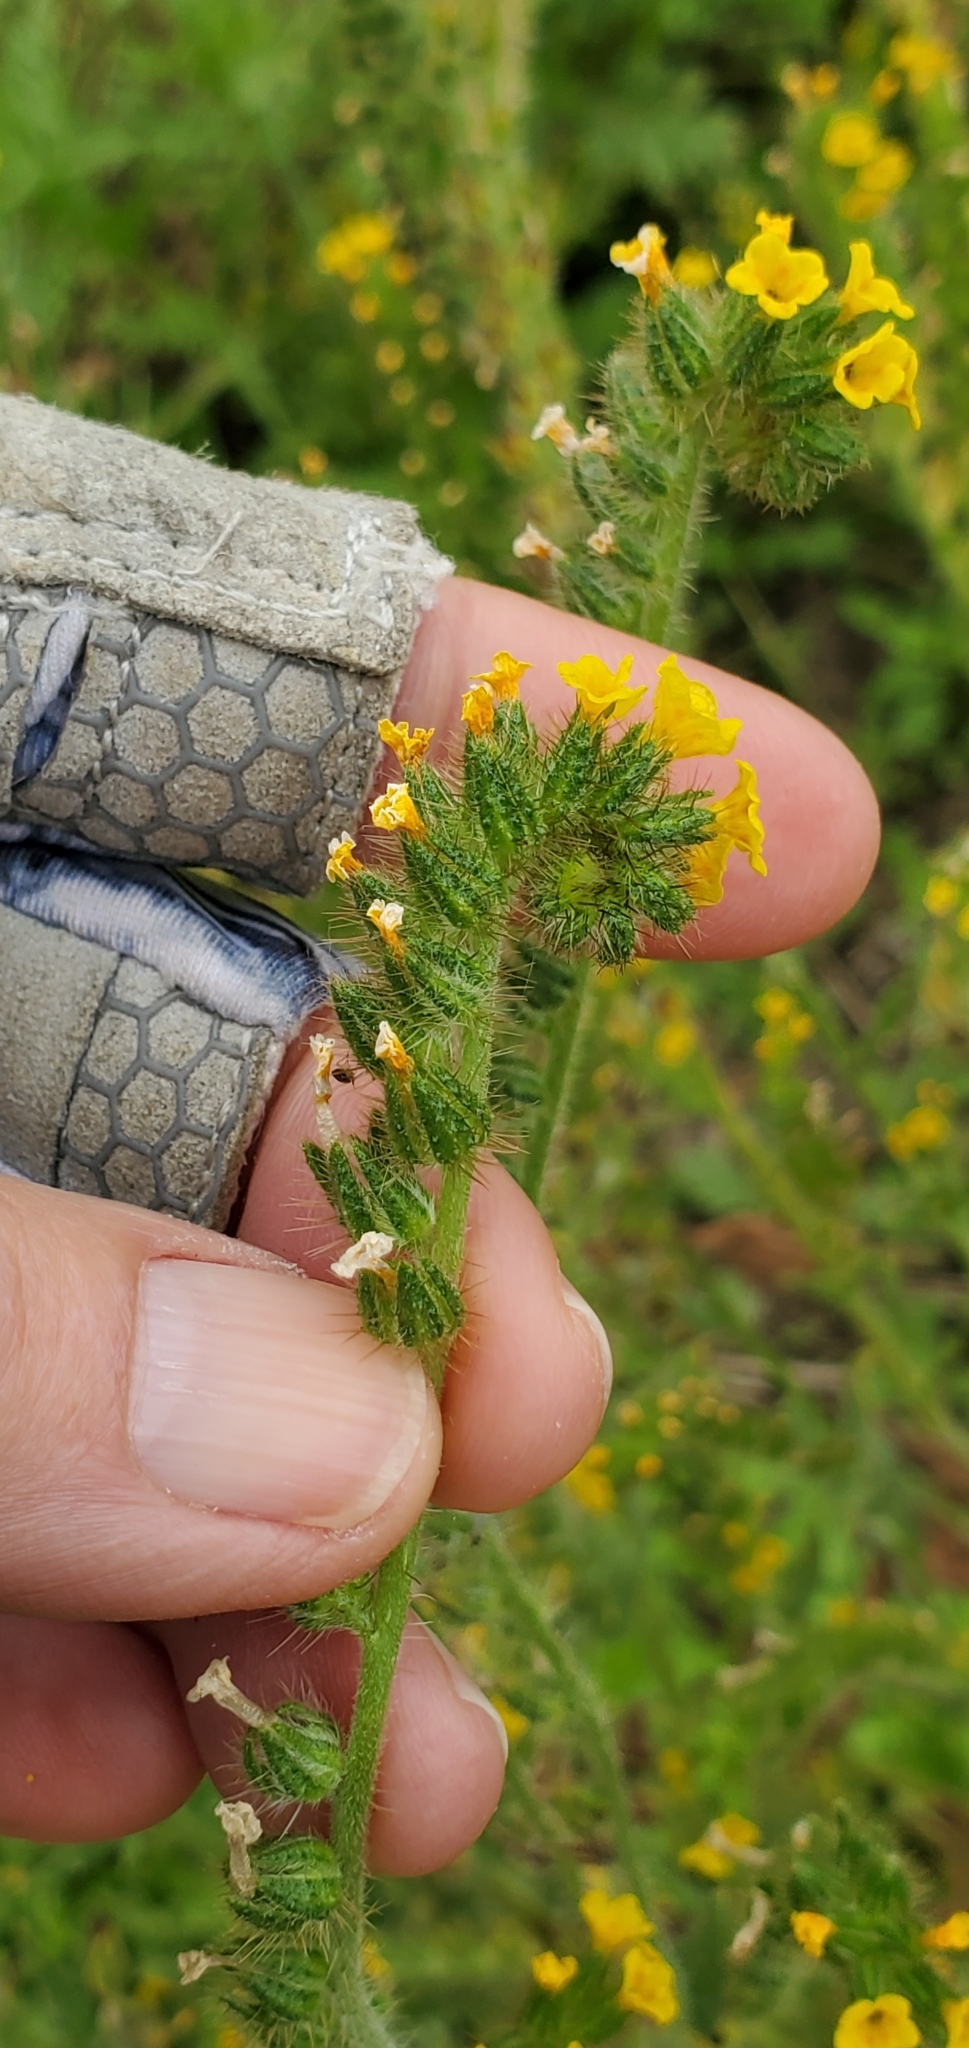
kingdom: Plantae
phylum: Tracheophyta
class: Magnoliopsida
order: Boraginales
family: Boraginaceae
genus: Amsinckia
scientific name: Amsinckia menziesii
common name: Menzies' fiddleneck
